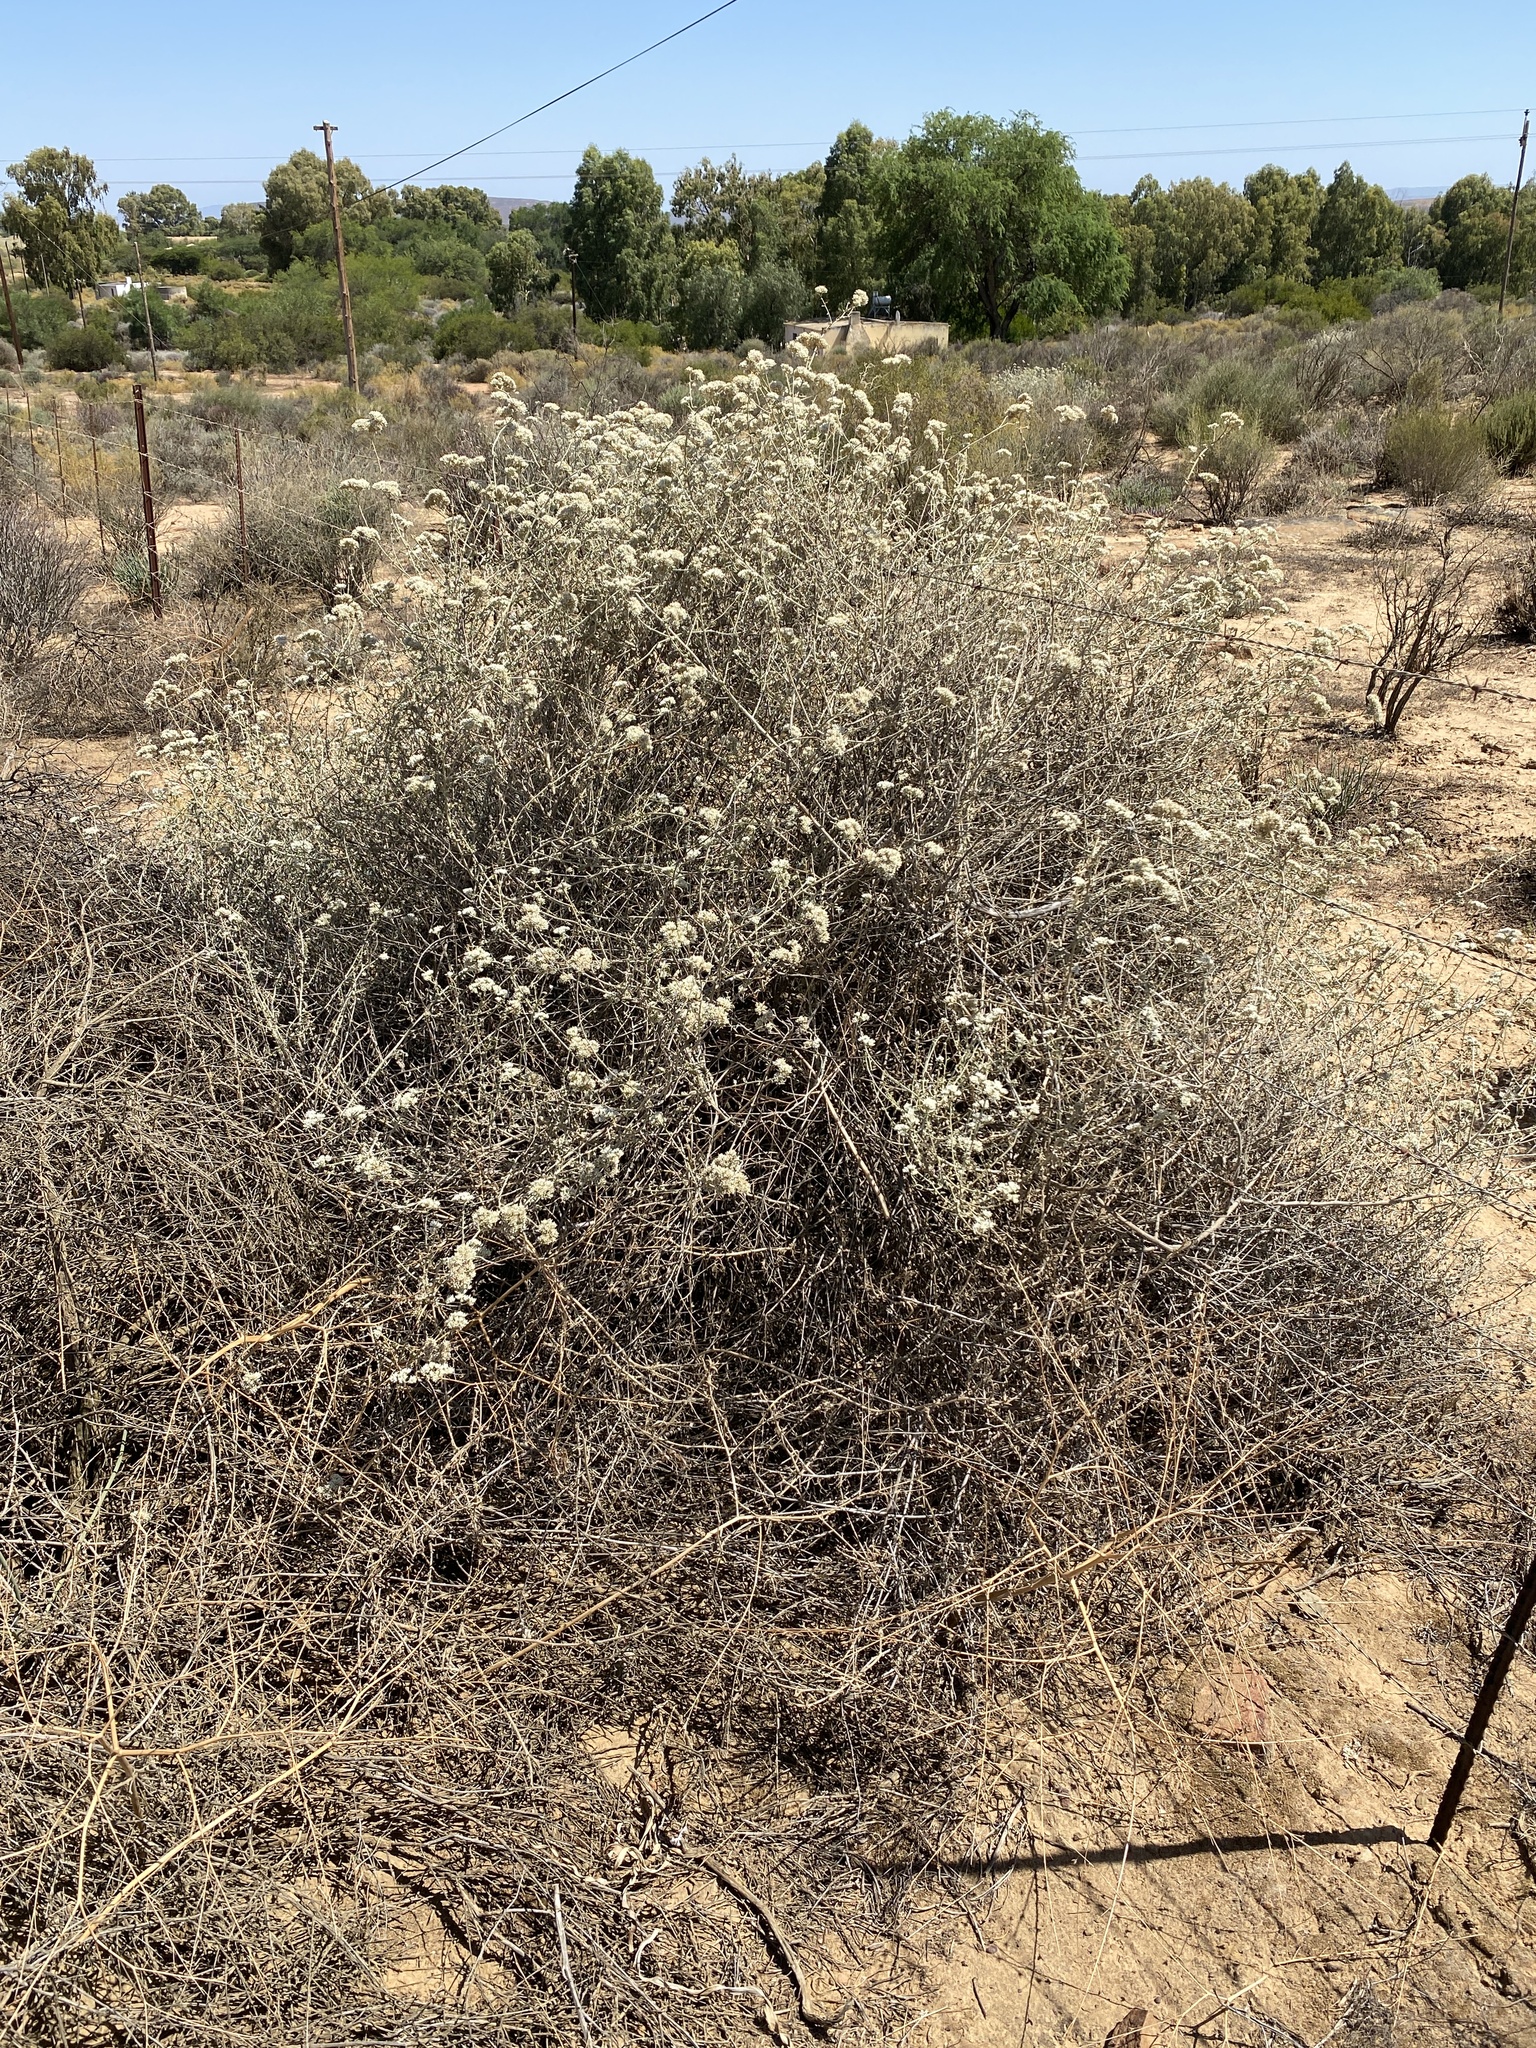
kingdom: Plantae
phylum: Tracheophyta
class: Magnoliopsida
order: Asterales
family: Asteraceae
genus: Helichrysum
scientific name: Helichrysum zeyheri
